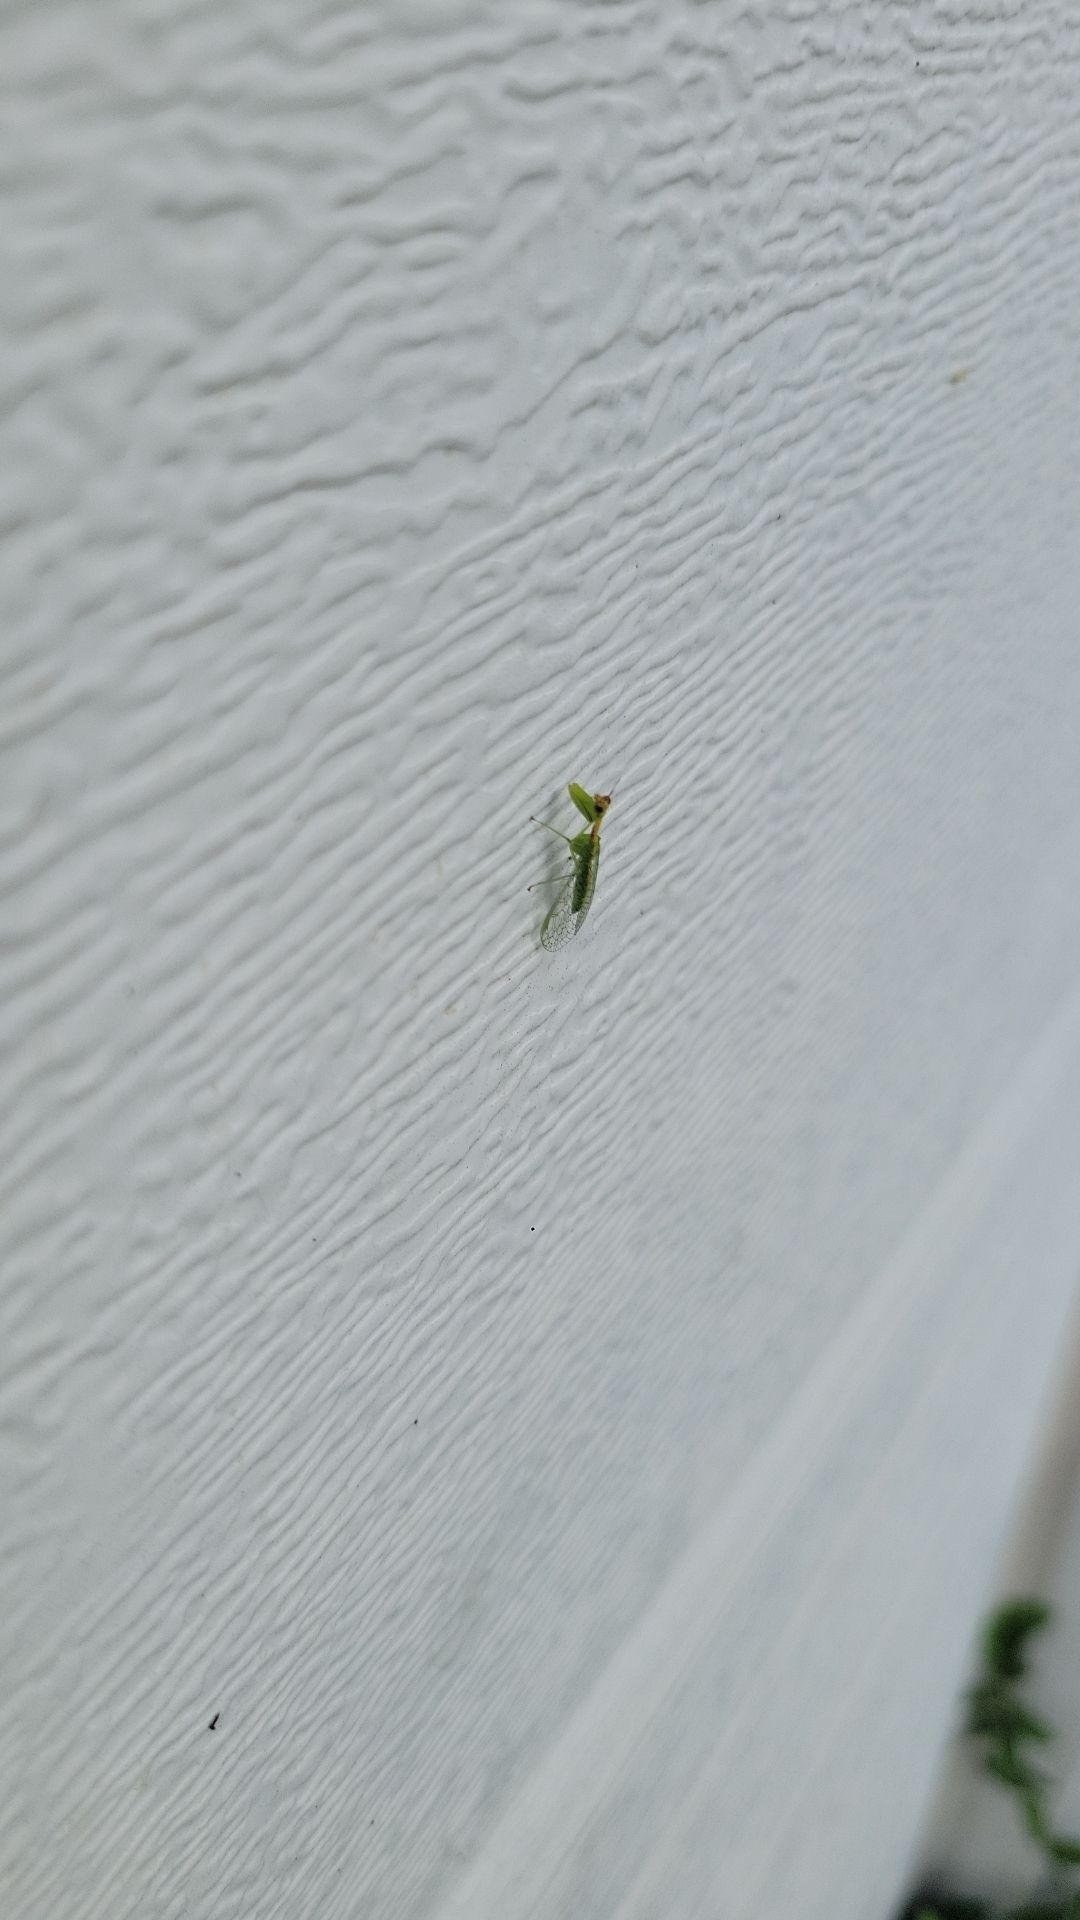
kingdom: Animalia
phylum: Arthropoda
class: Insecta
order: Neuroptera
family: Mantispidae
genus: Zeugomantispa
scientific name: Zeugomantispa minuta
